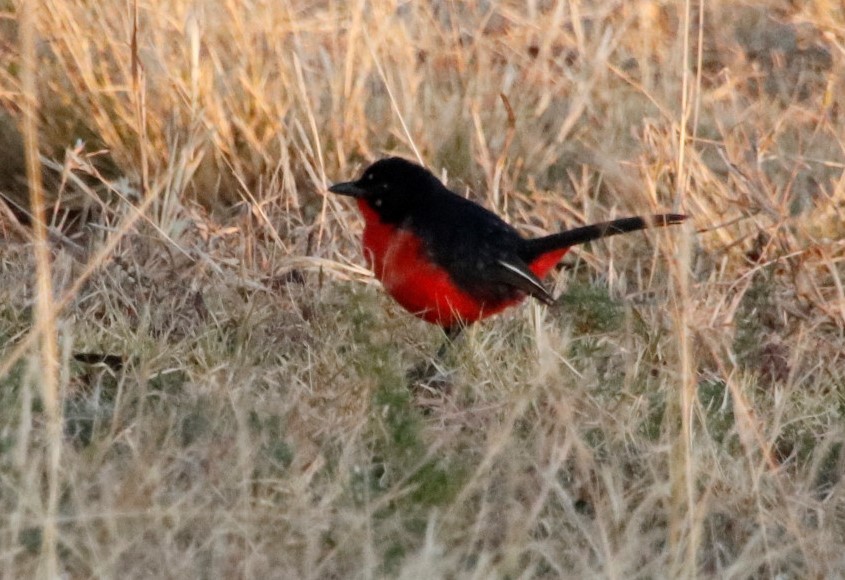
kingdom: Animalia
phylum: Chordata
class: Aves
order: Passeriformes
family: Malaconotidae
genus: Laniarius
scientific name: Laniarius atrococcineus
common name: Crimson-breasted shrike
